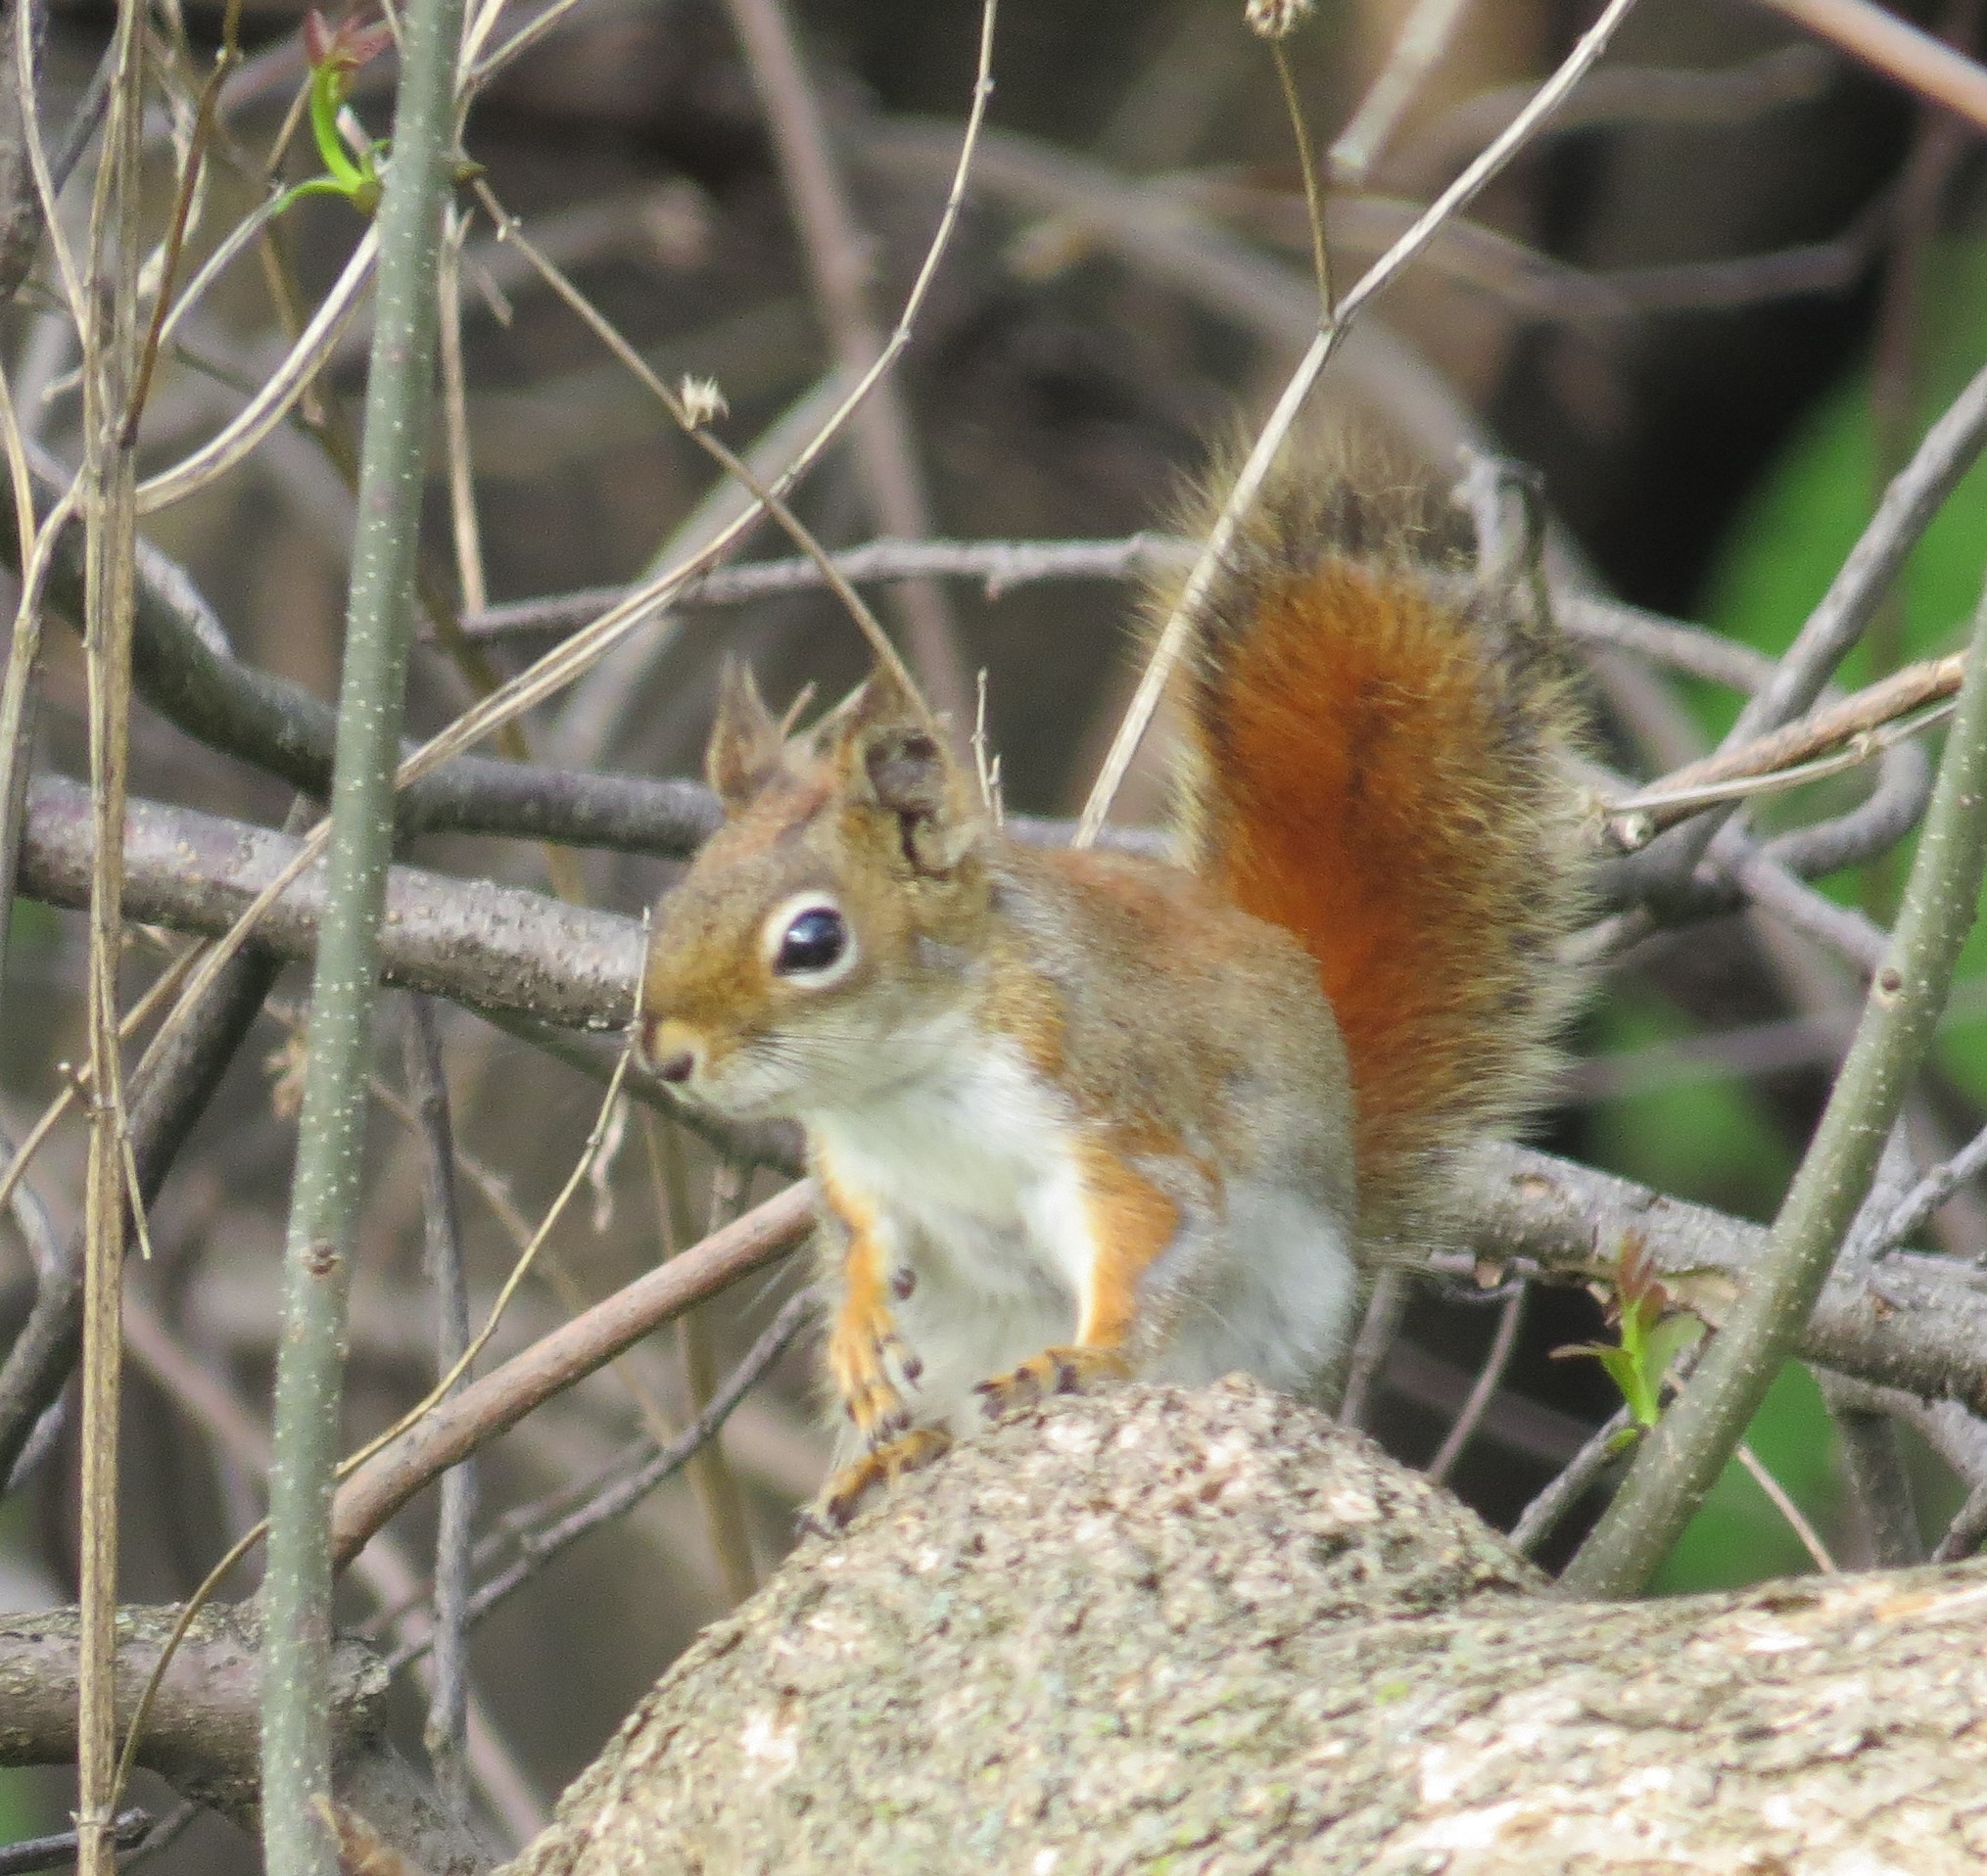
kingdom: Animalia
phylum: Chordata
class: Mammalia
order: Rodentia
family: Sciuridae
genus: Tamiasciurus
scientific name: Tamiasciurus hudsonicus
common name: Red squirrel
